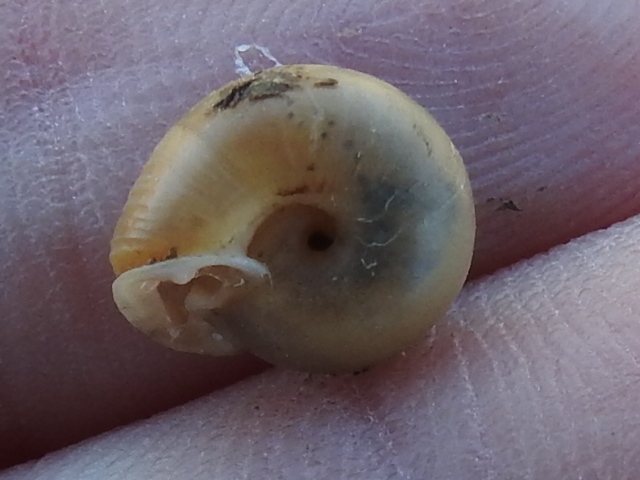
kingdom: Animalia
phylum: Mollusca
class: Gastropoda
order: Stylommatophora
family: Polygyridae
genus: Linisa
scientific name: Linisa texasiana
